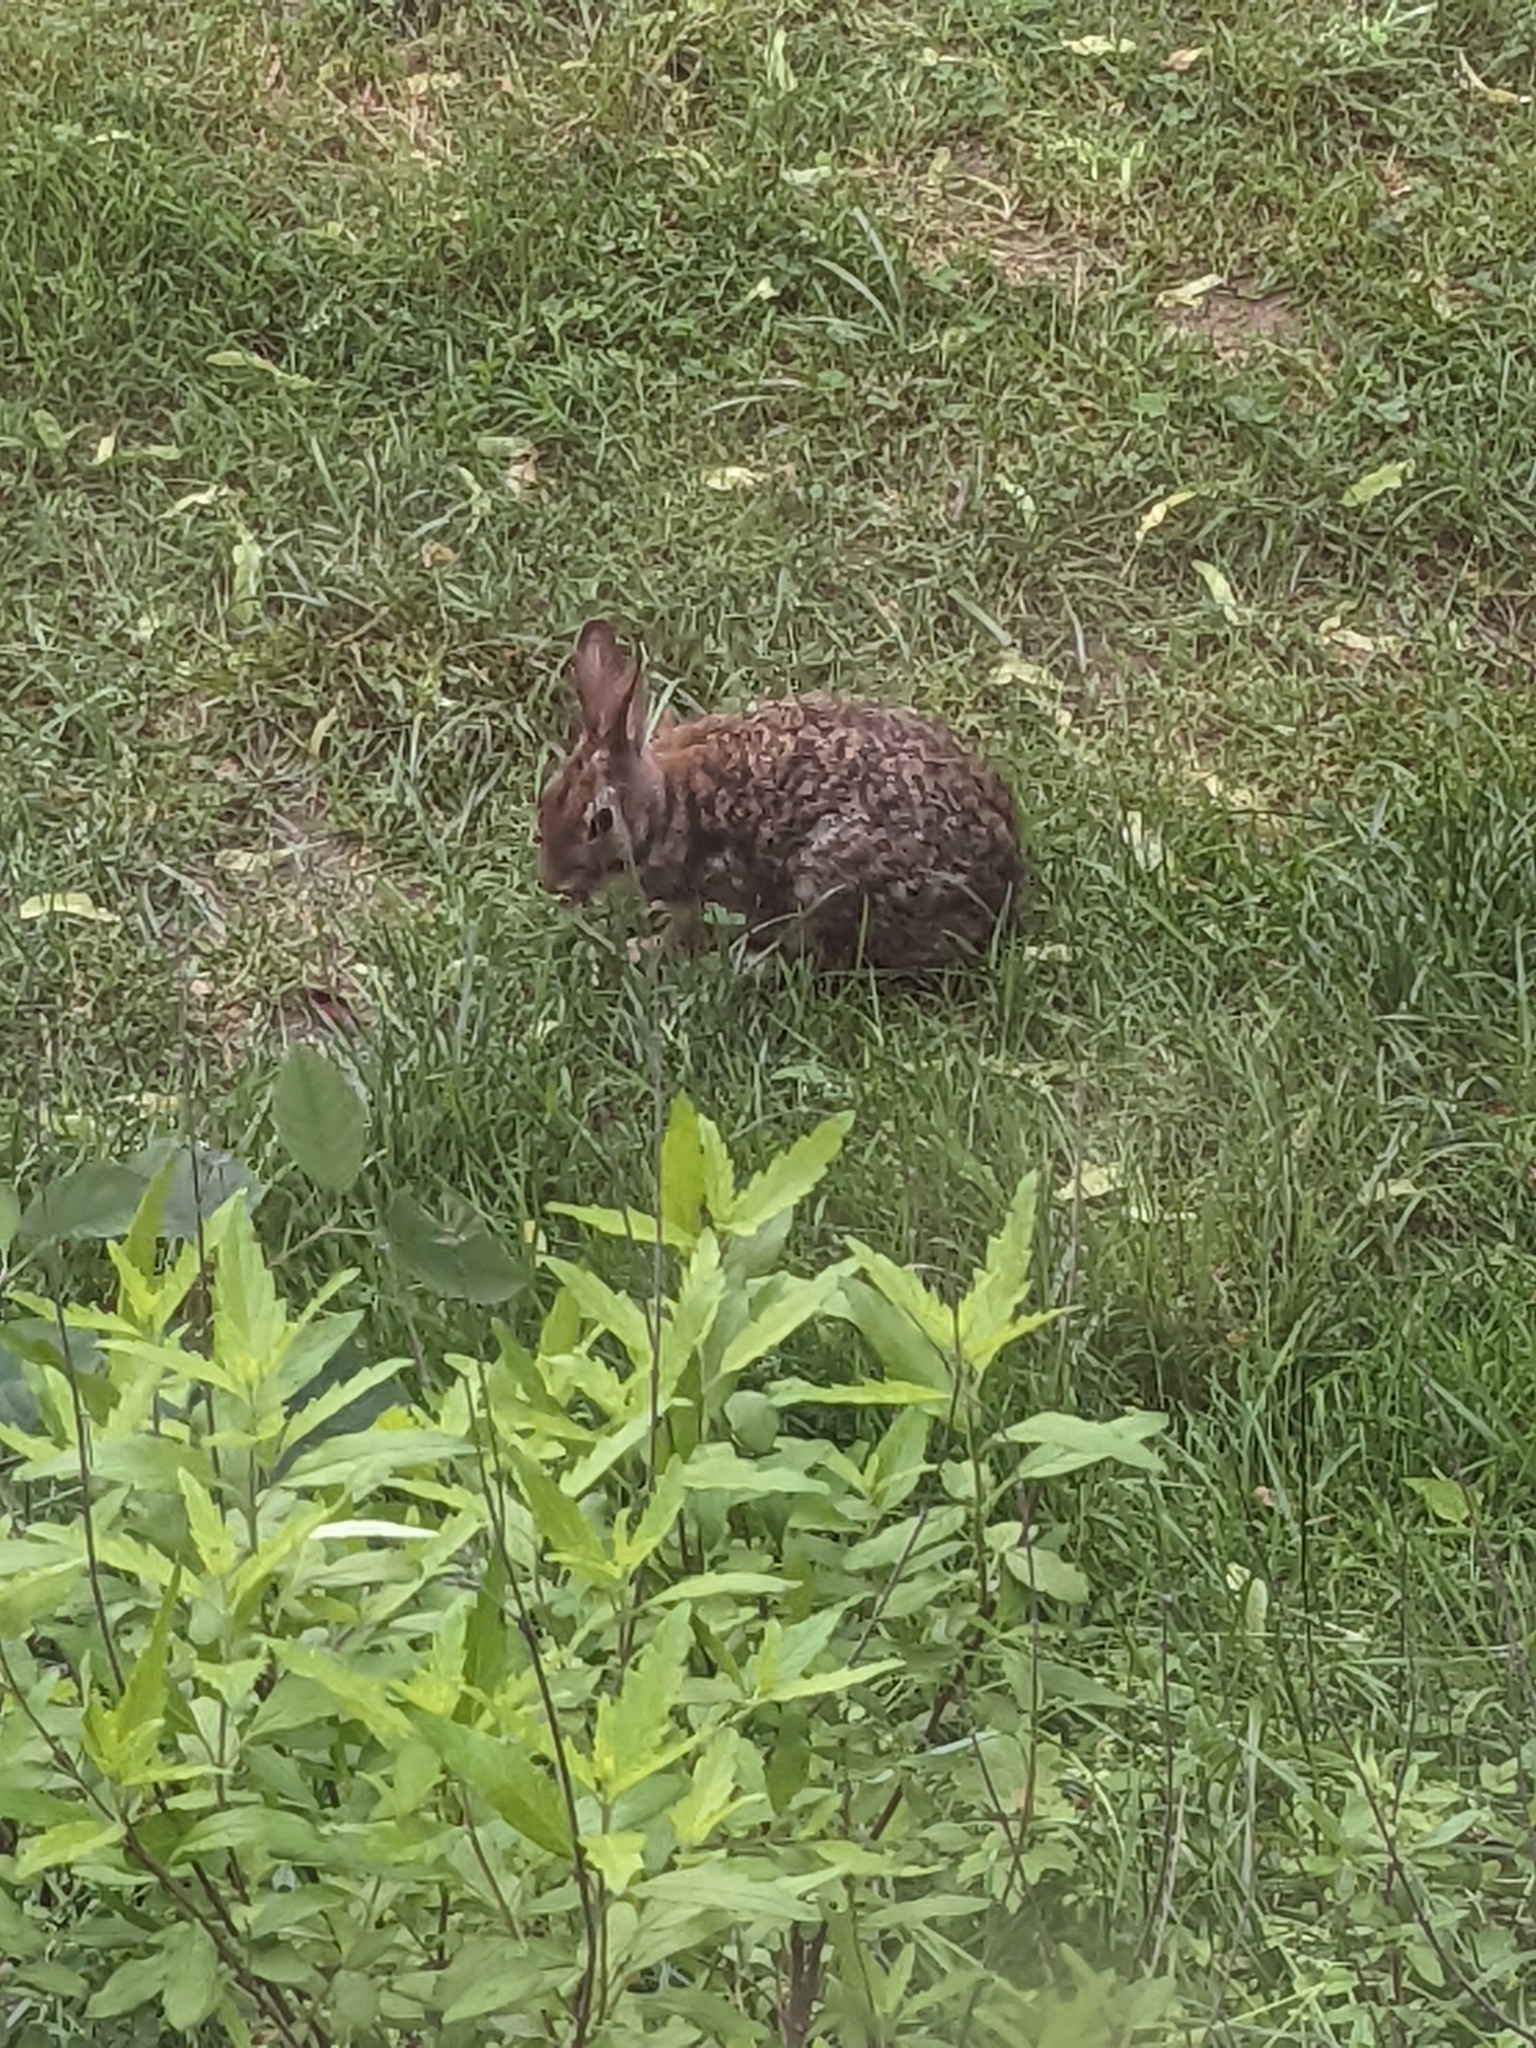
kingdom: Animalia
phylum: Chordata
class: Mammalia
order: Lagomorpha
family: Leporidae
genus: Sylvilagus
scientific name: Sylvilagus floridanus
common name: Eastern cottontail
